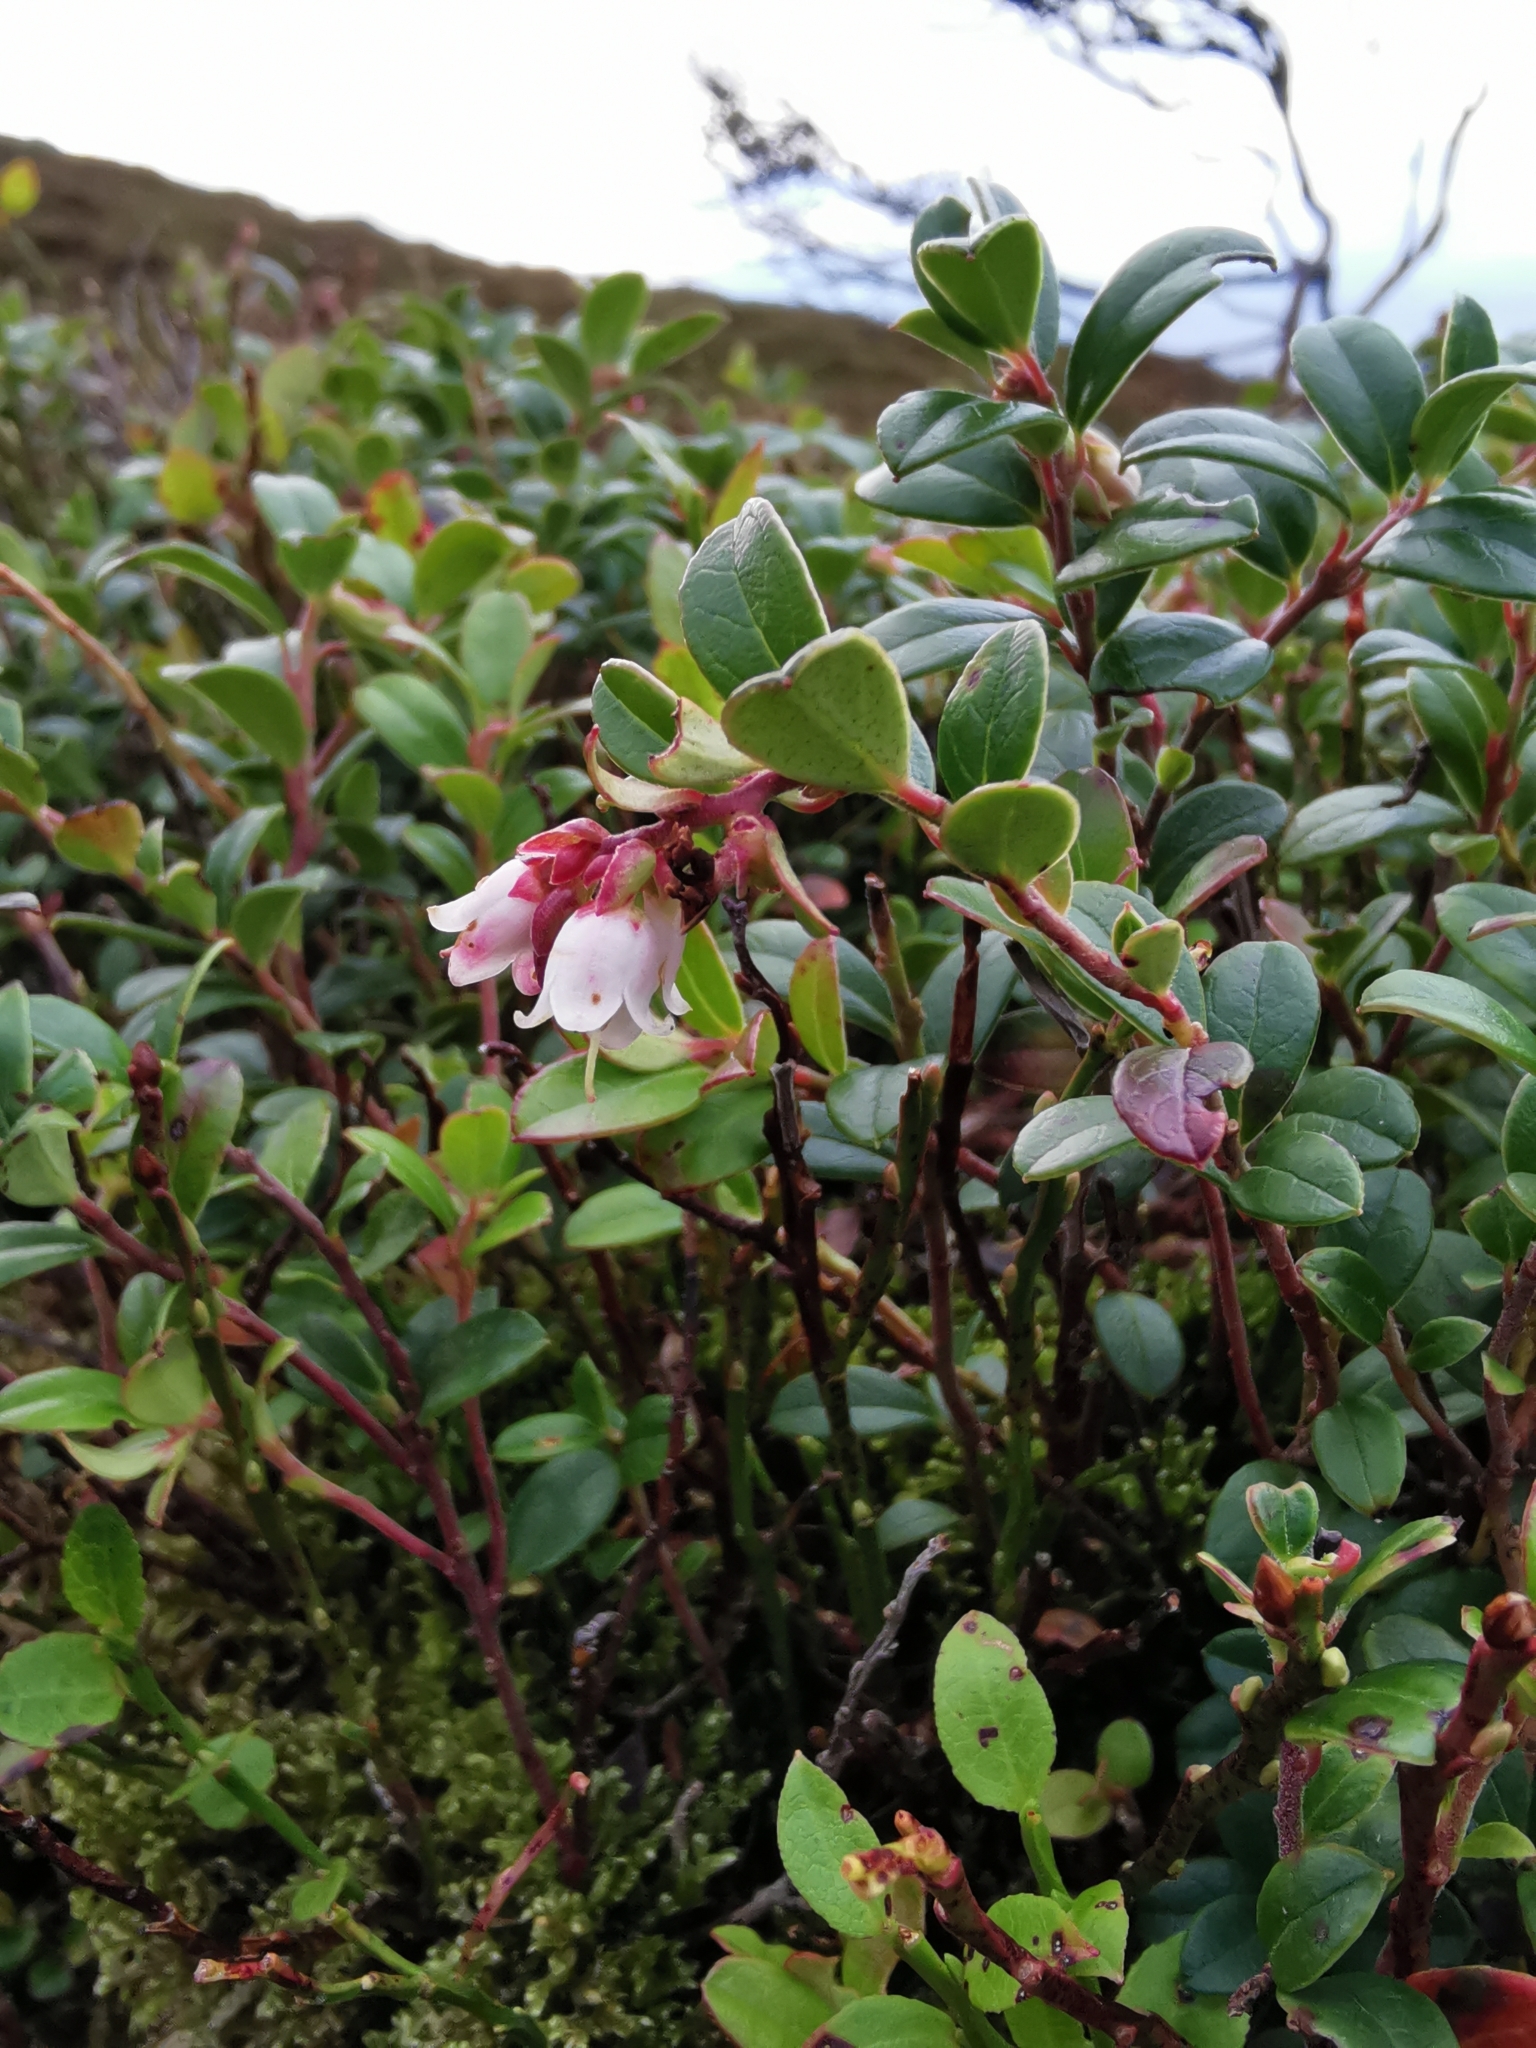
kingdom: Plantae
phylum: Tracheophyta
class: Magnoliopsida
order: Ericales
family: Ericaceae
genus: Vaccinium
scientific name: Vaccinium vitis-idaea
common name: Cowberry
